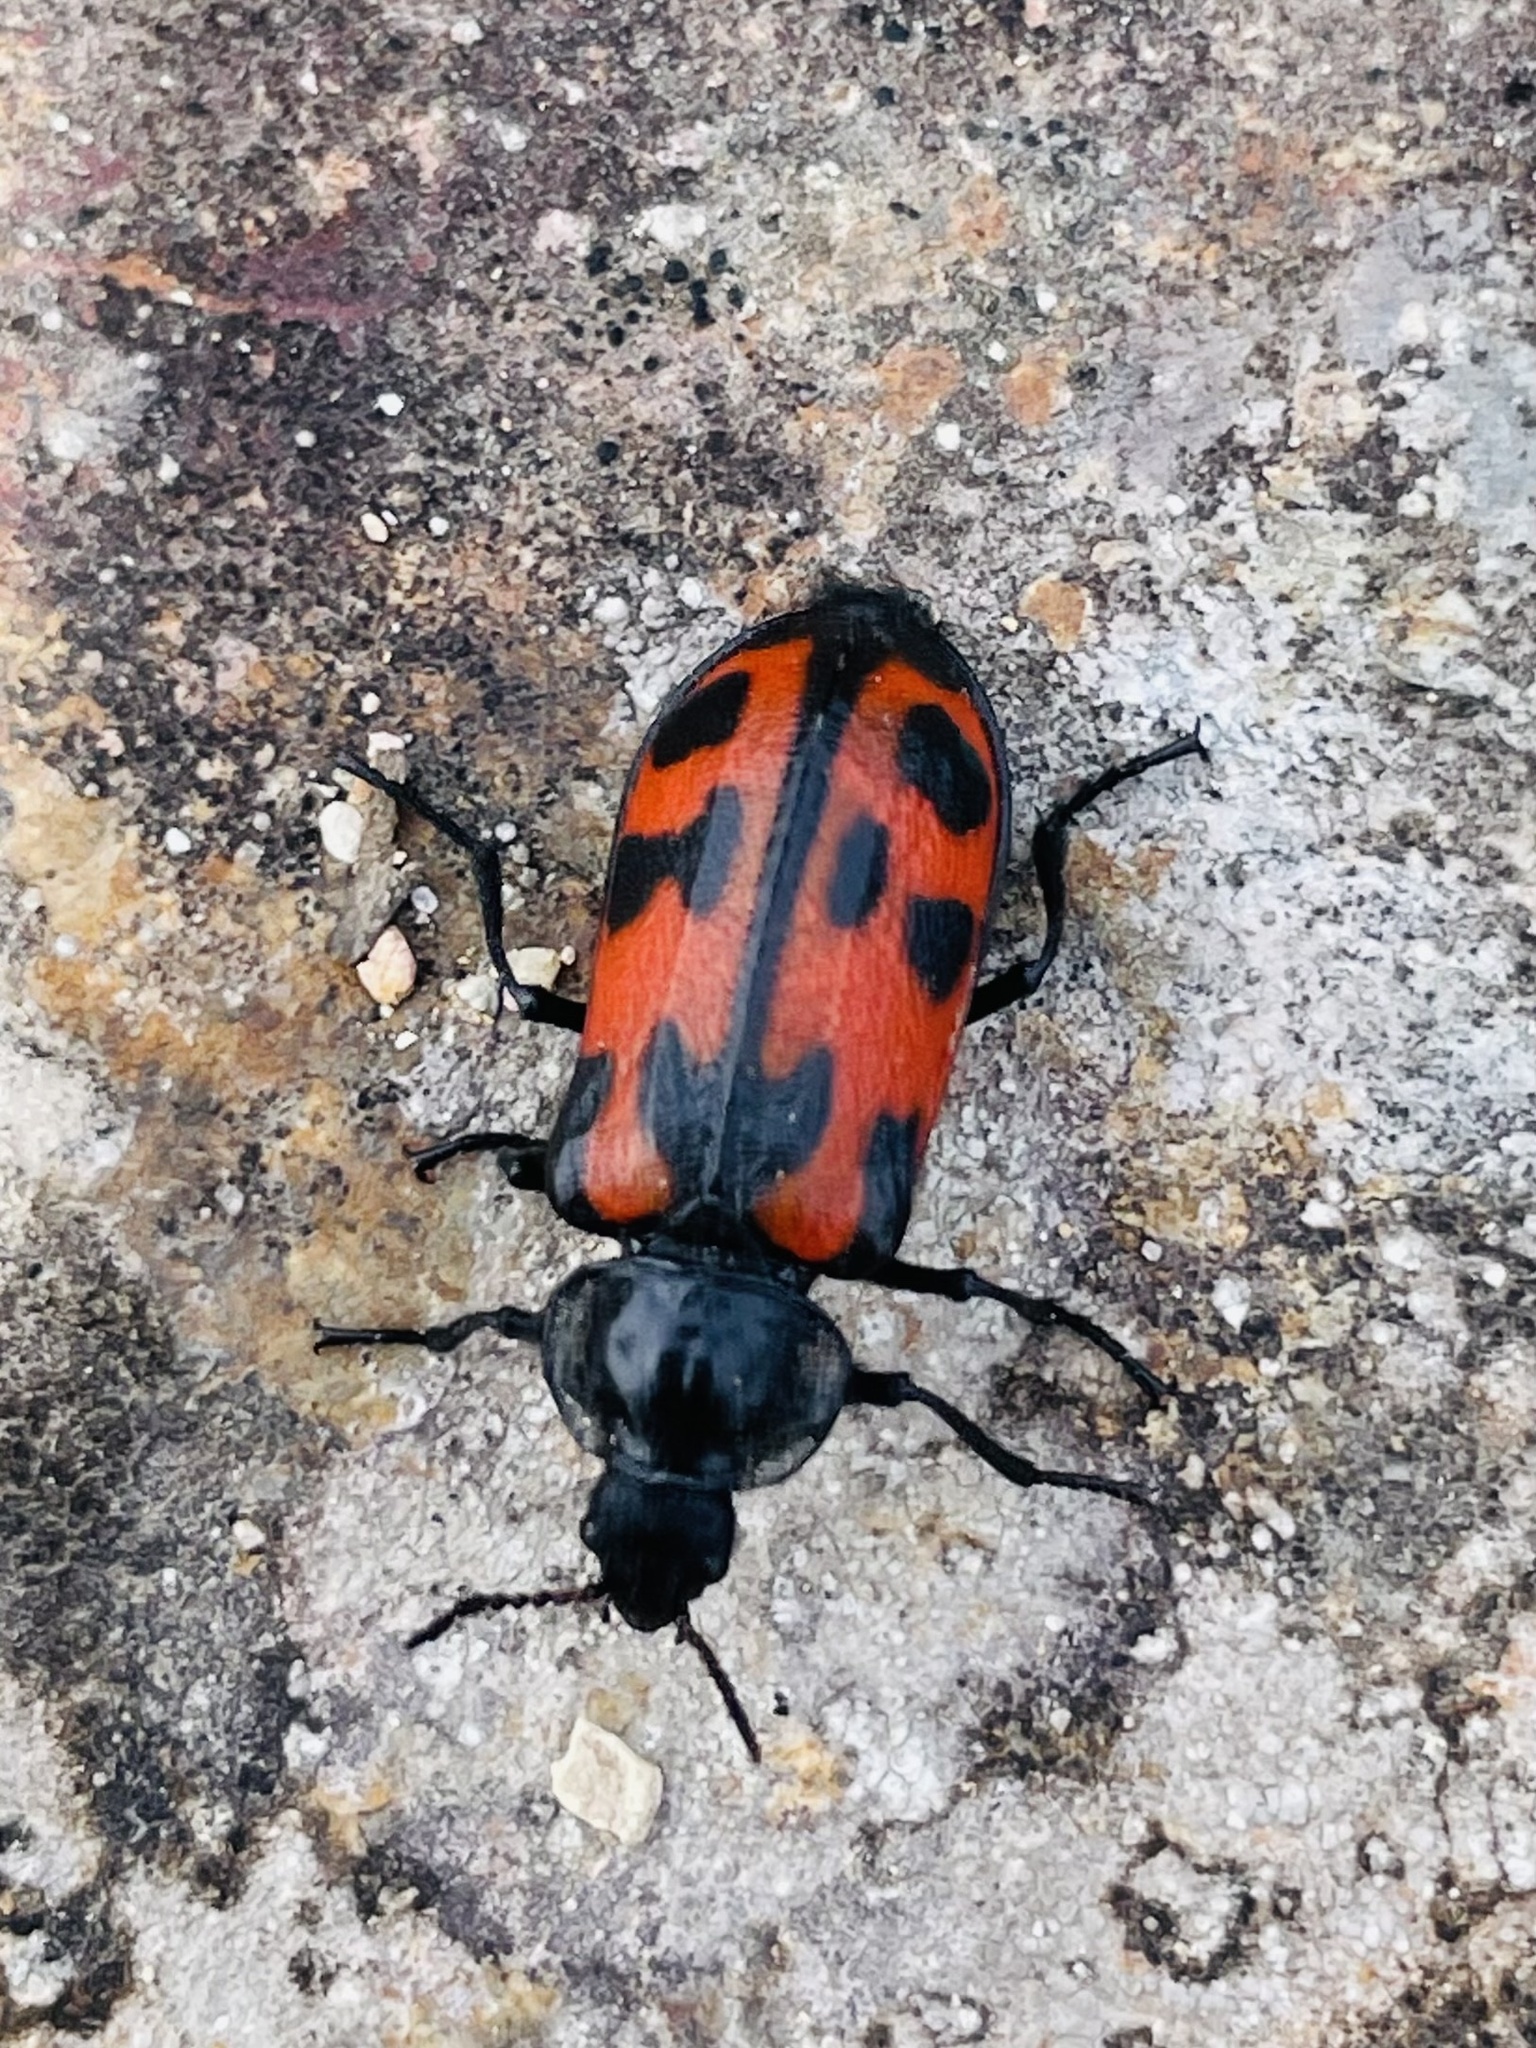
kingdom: Animalia
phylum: Arthropoda
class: Insecta
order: Coleoptera
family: Melyridae
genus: Astylus
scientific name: Astylus
